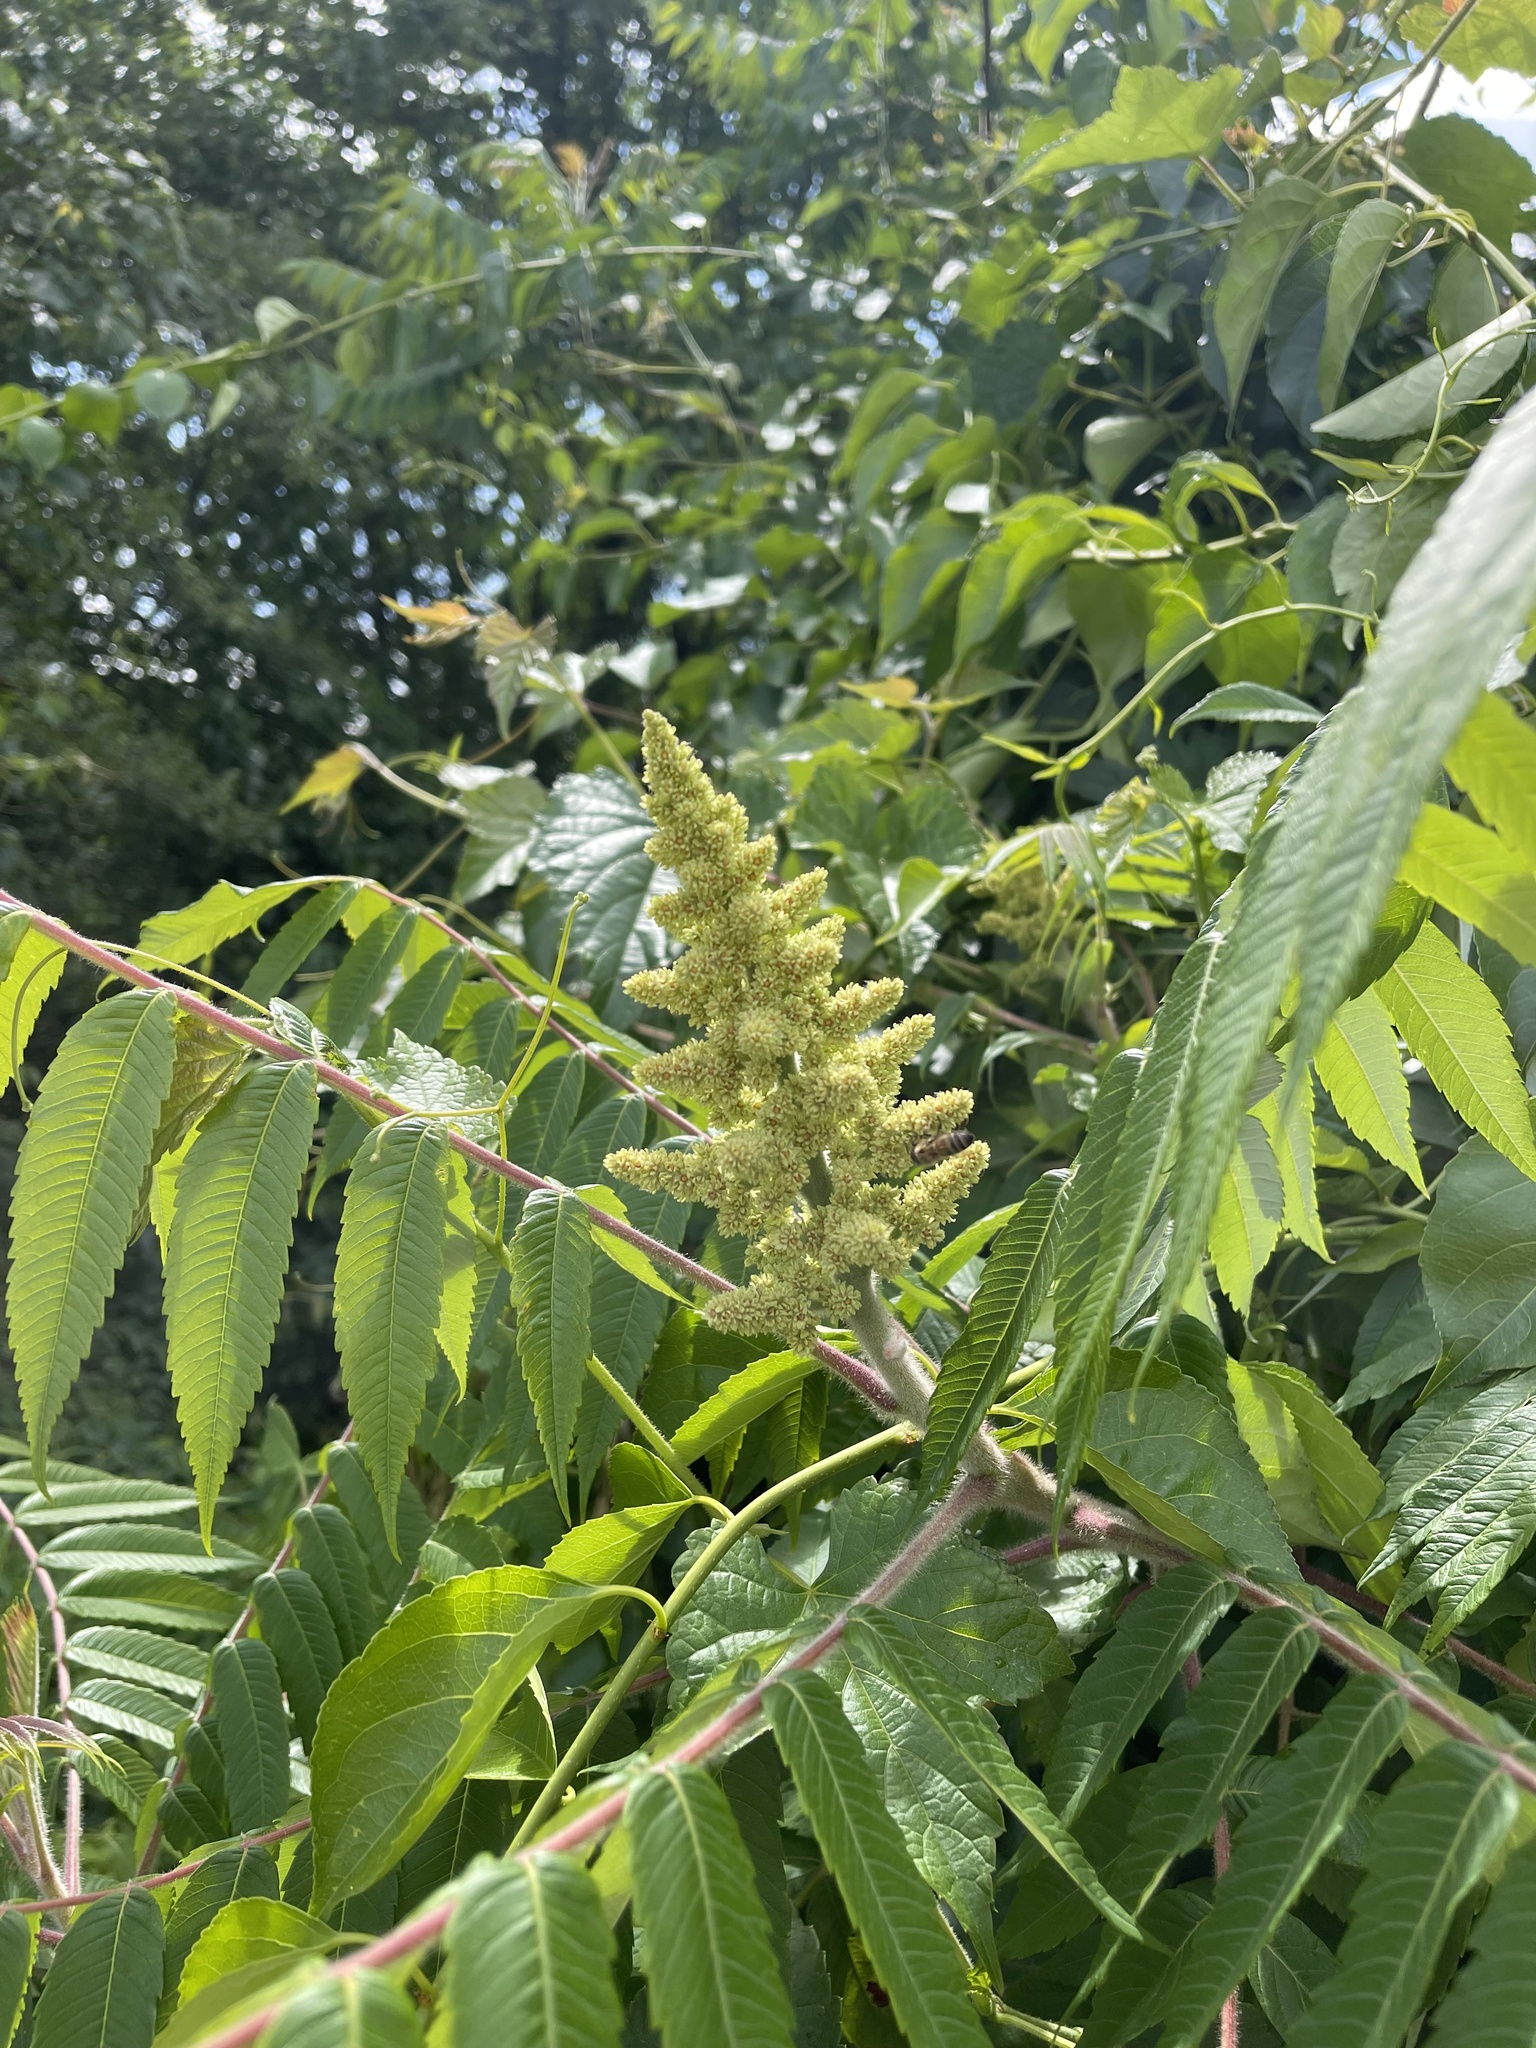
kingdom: Plantae
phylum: Tracheophyta
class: Magnoliopsida
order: Sapindales
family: Anacardiaceae
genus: Rhus
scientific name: Rhus typhina
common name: Staghorn sumac
